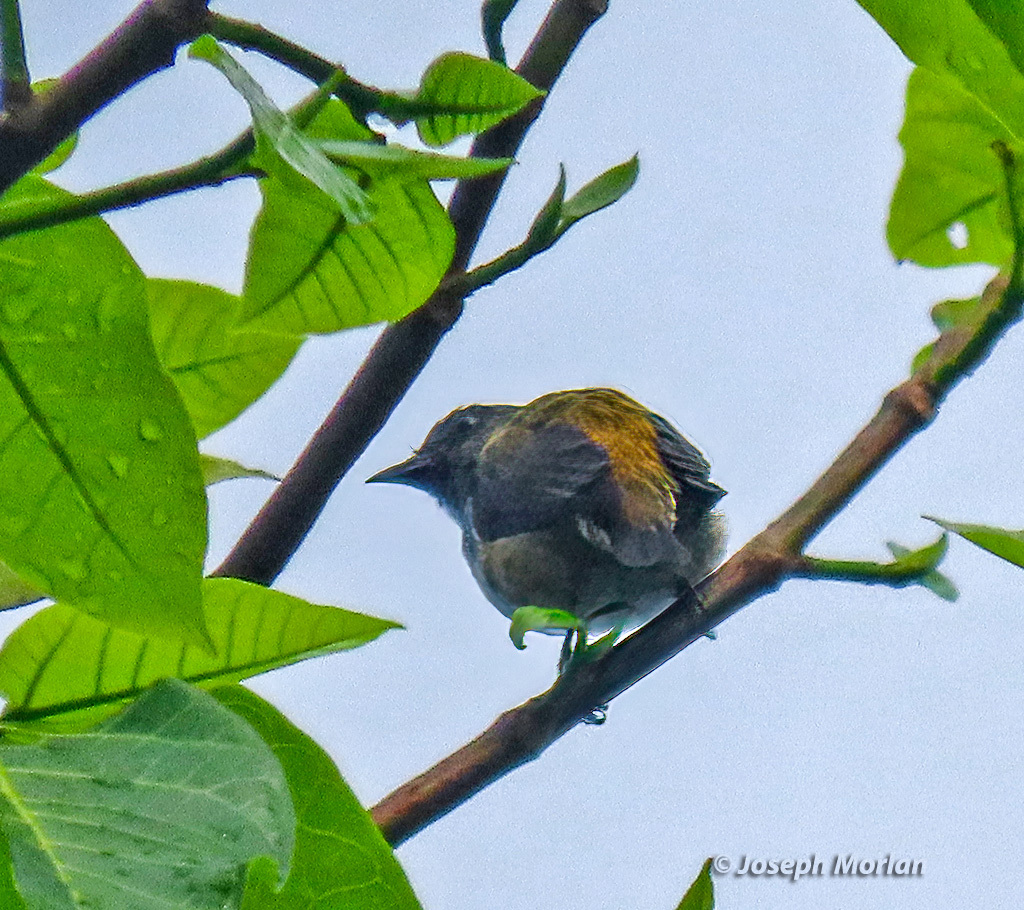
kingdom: Animalia
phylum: Chordata
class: Aves
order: Passeriformes
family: Dicaeidae
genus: Dicaeum
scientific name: Dicaeum schistaceiceps
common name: Halmahera flowerpecker
